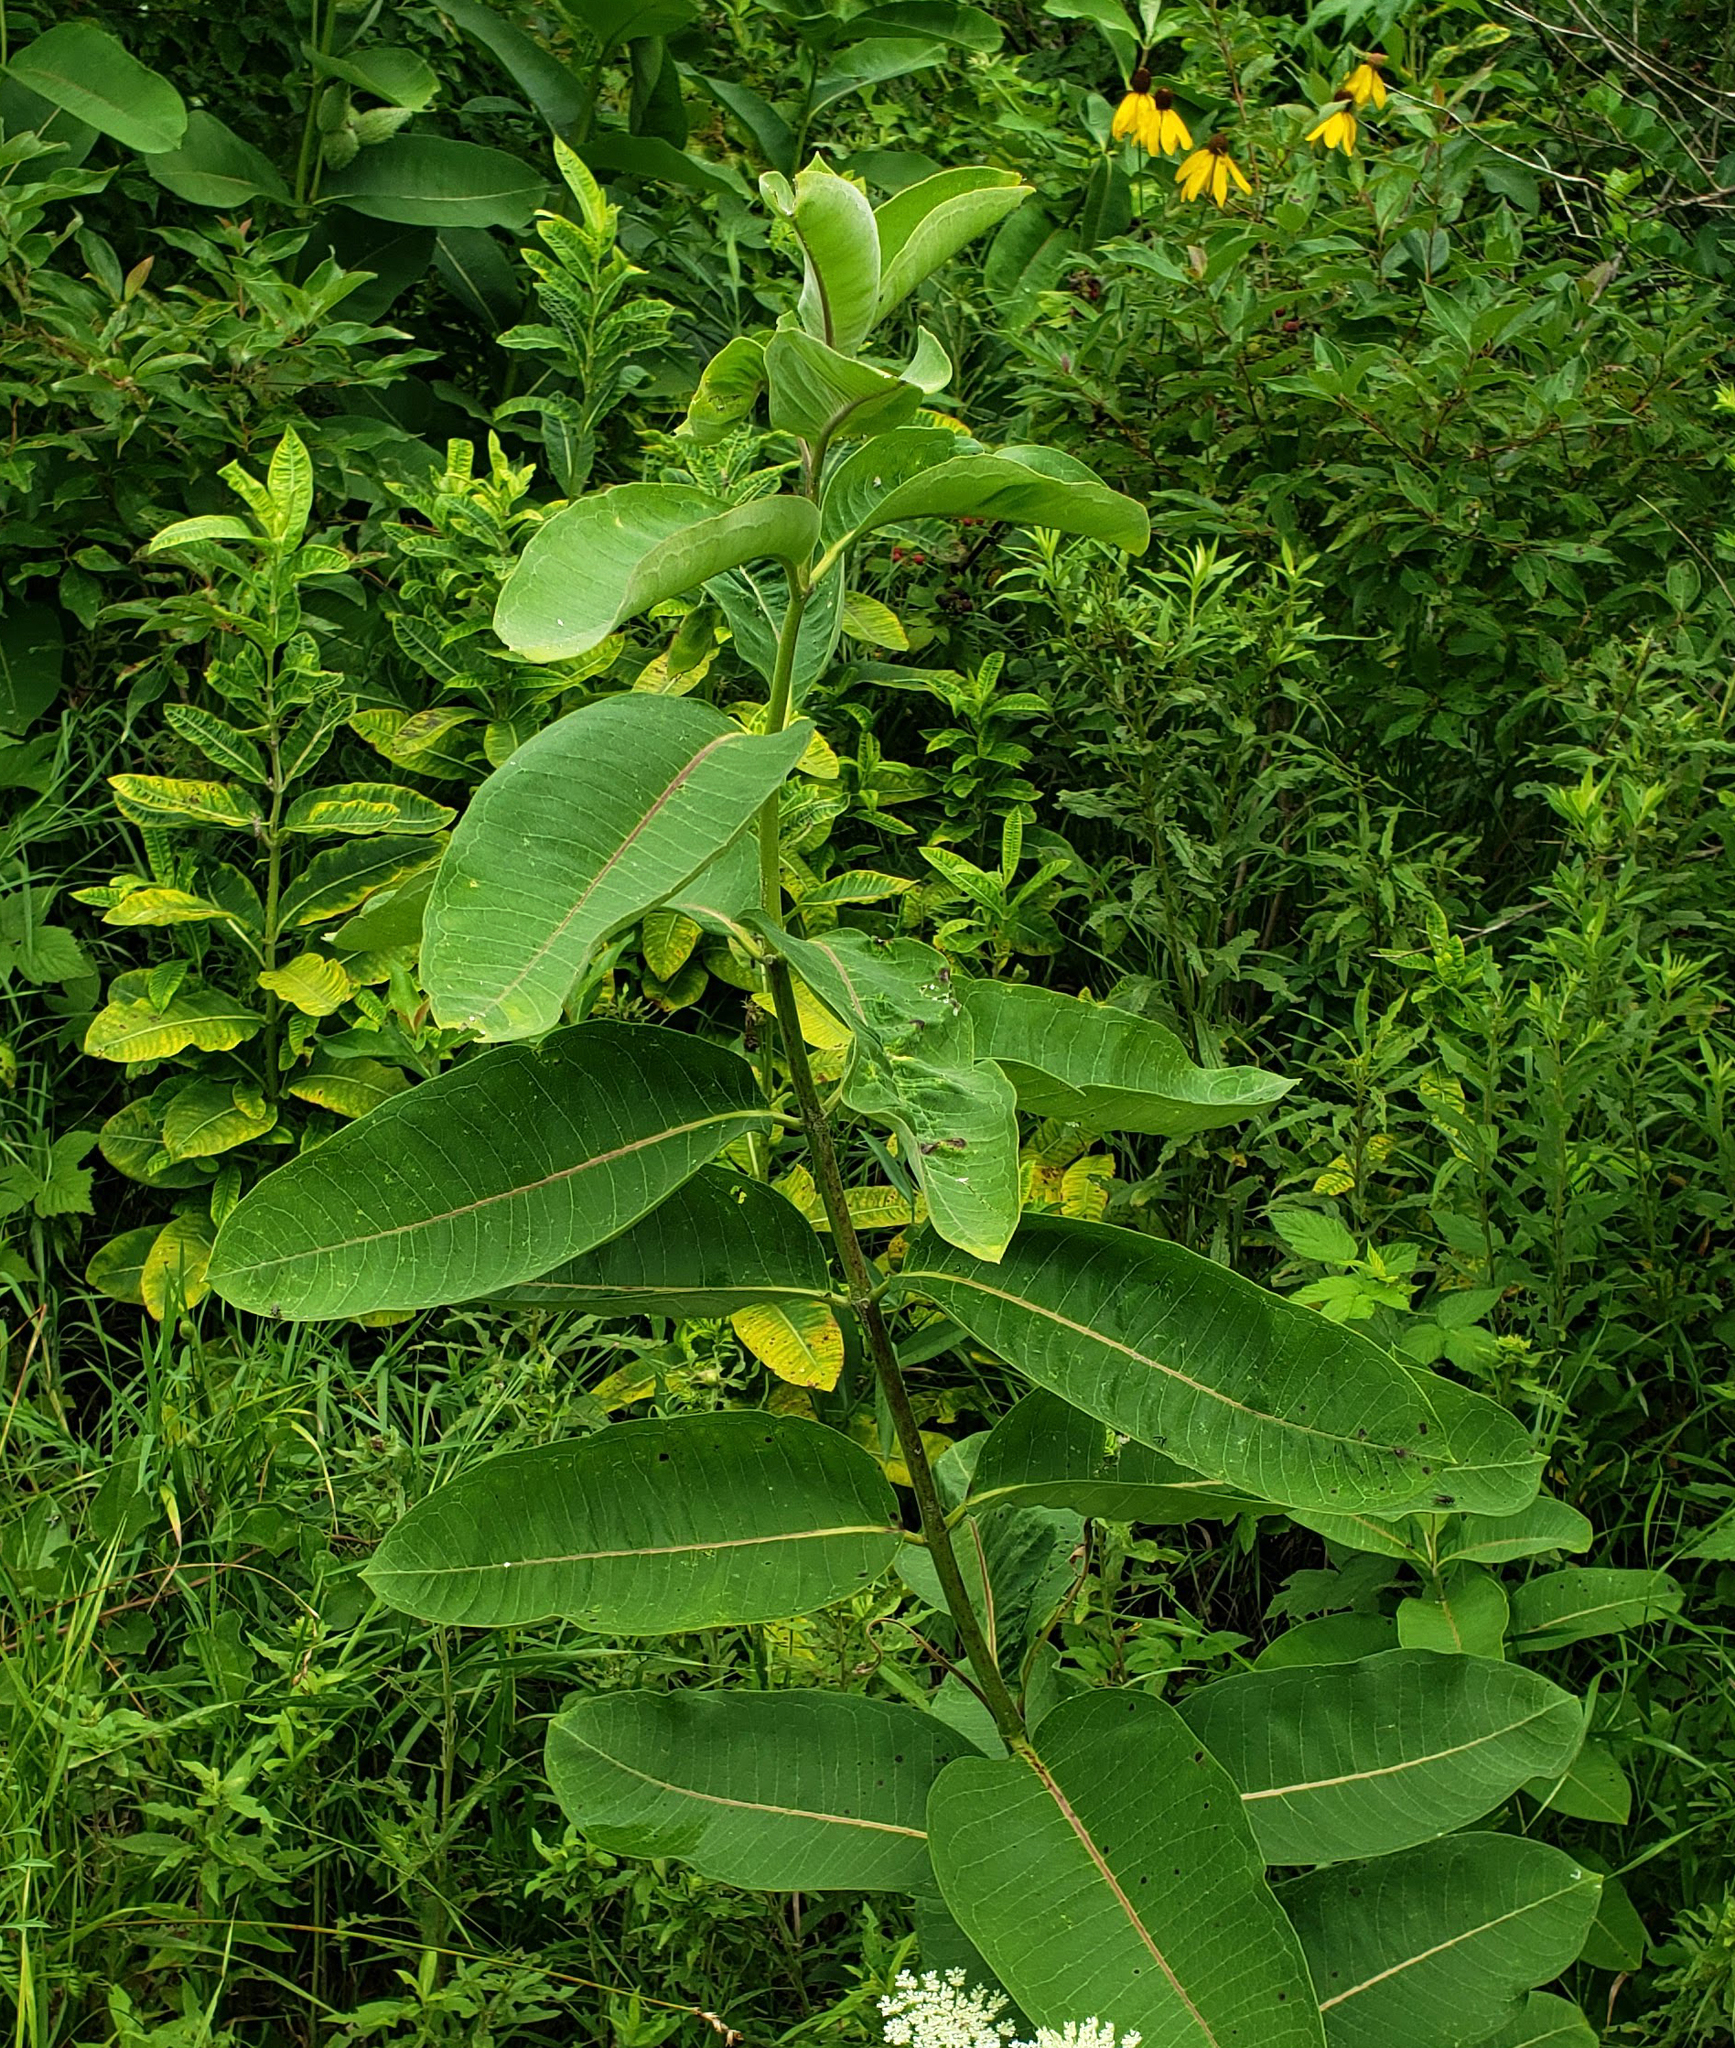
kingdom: Plantae
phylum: Tracheophyta
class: Magnoliopsida
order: Gentianales
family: Apocynaceae
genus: Asclepias
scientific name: Asclepias syriaca
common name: Common milkweed
